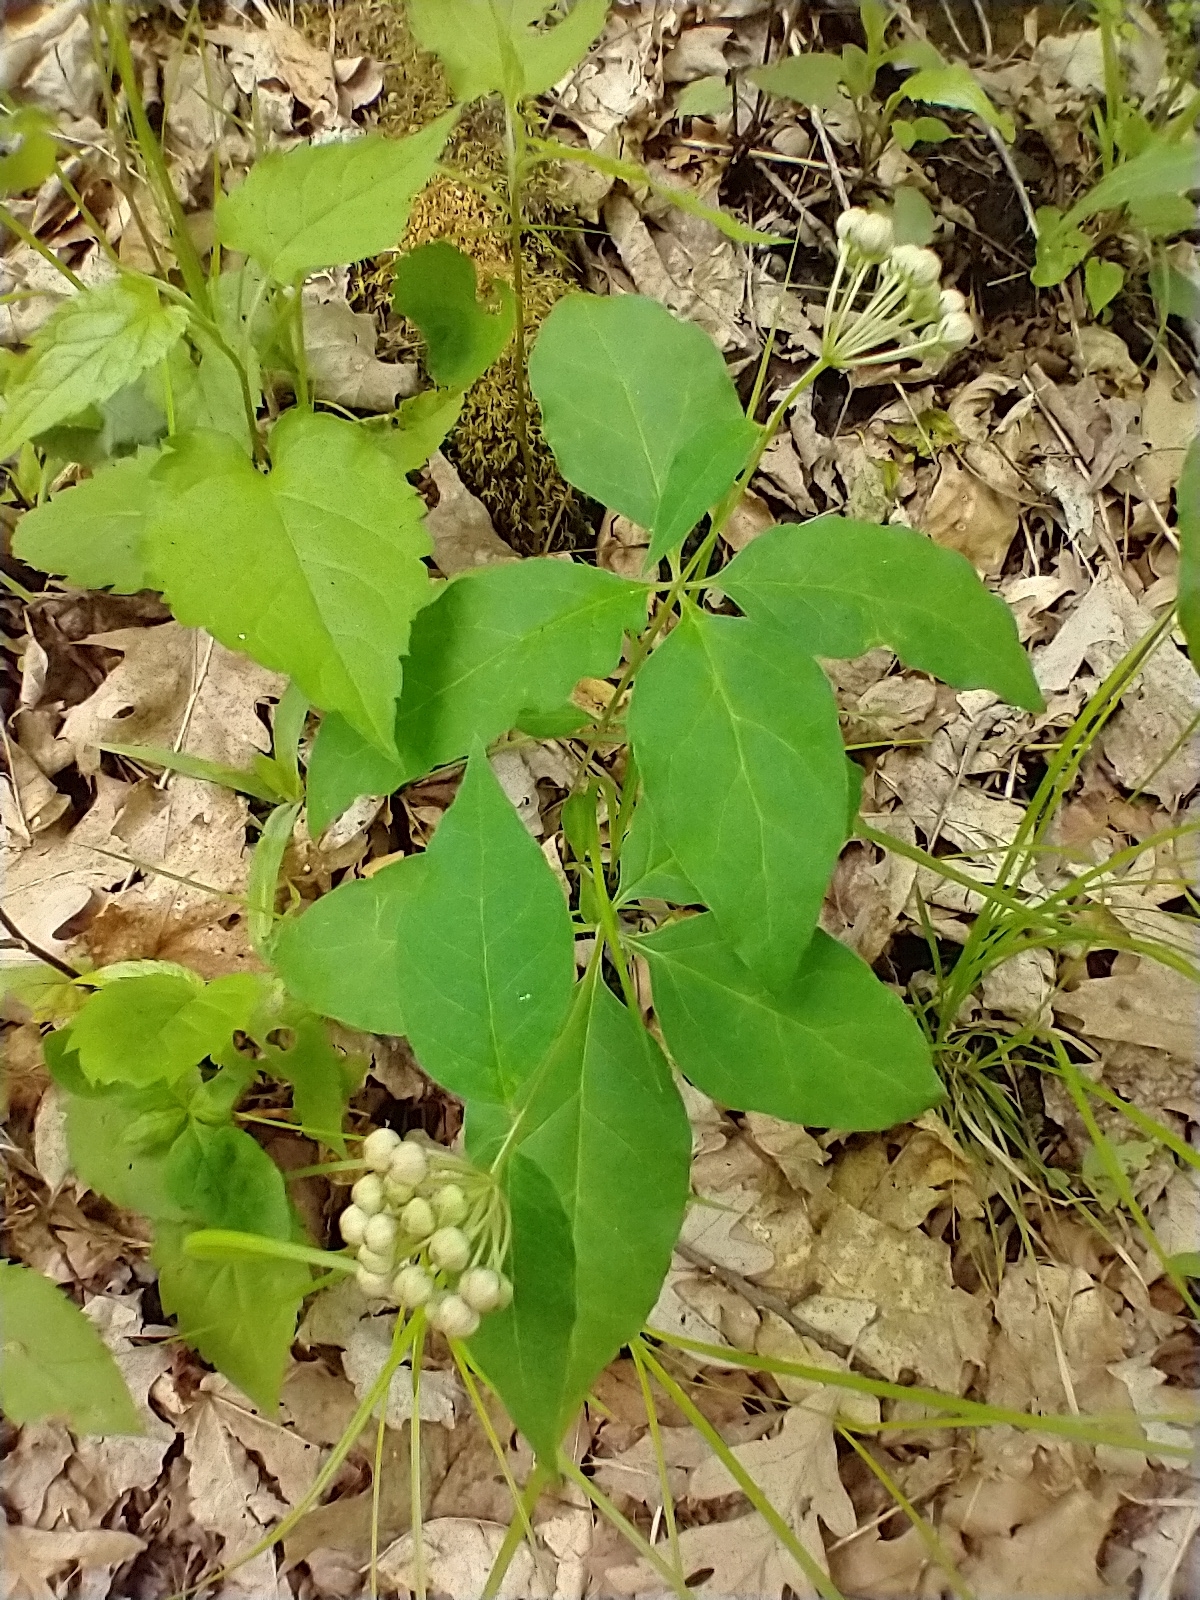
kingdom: Plantae
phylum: Tracheophyta
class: Magnoliopsida
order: Gentianales
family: Apocynaceae
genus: Asclepias
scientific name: Asclepias quadrifolia
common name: Whorled milkweed
